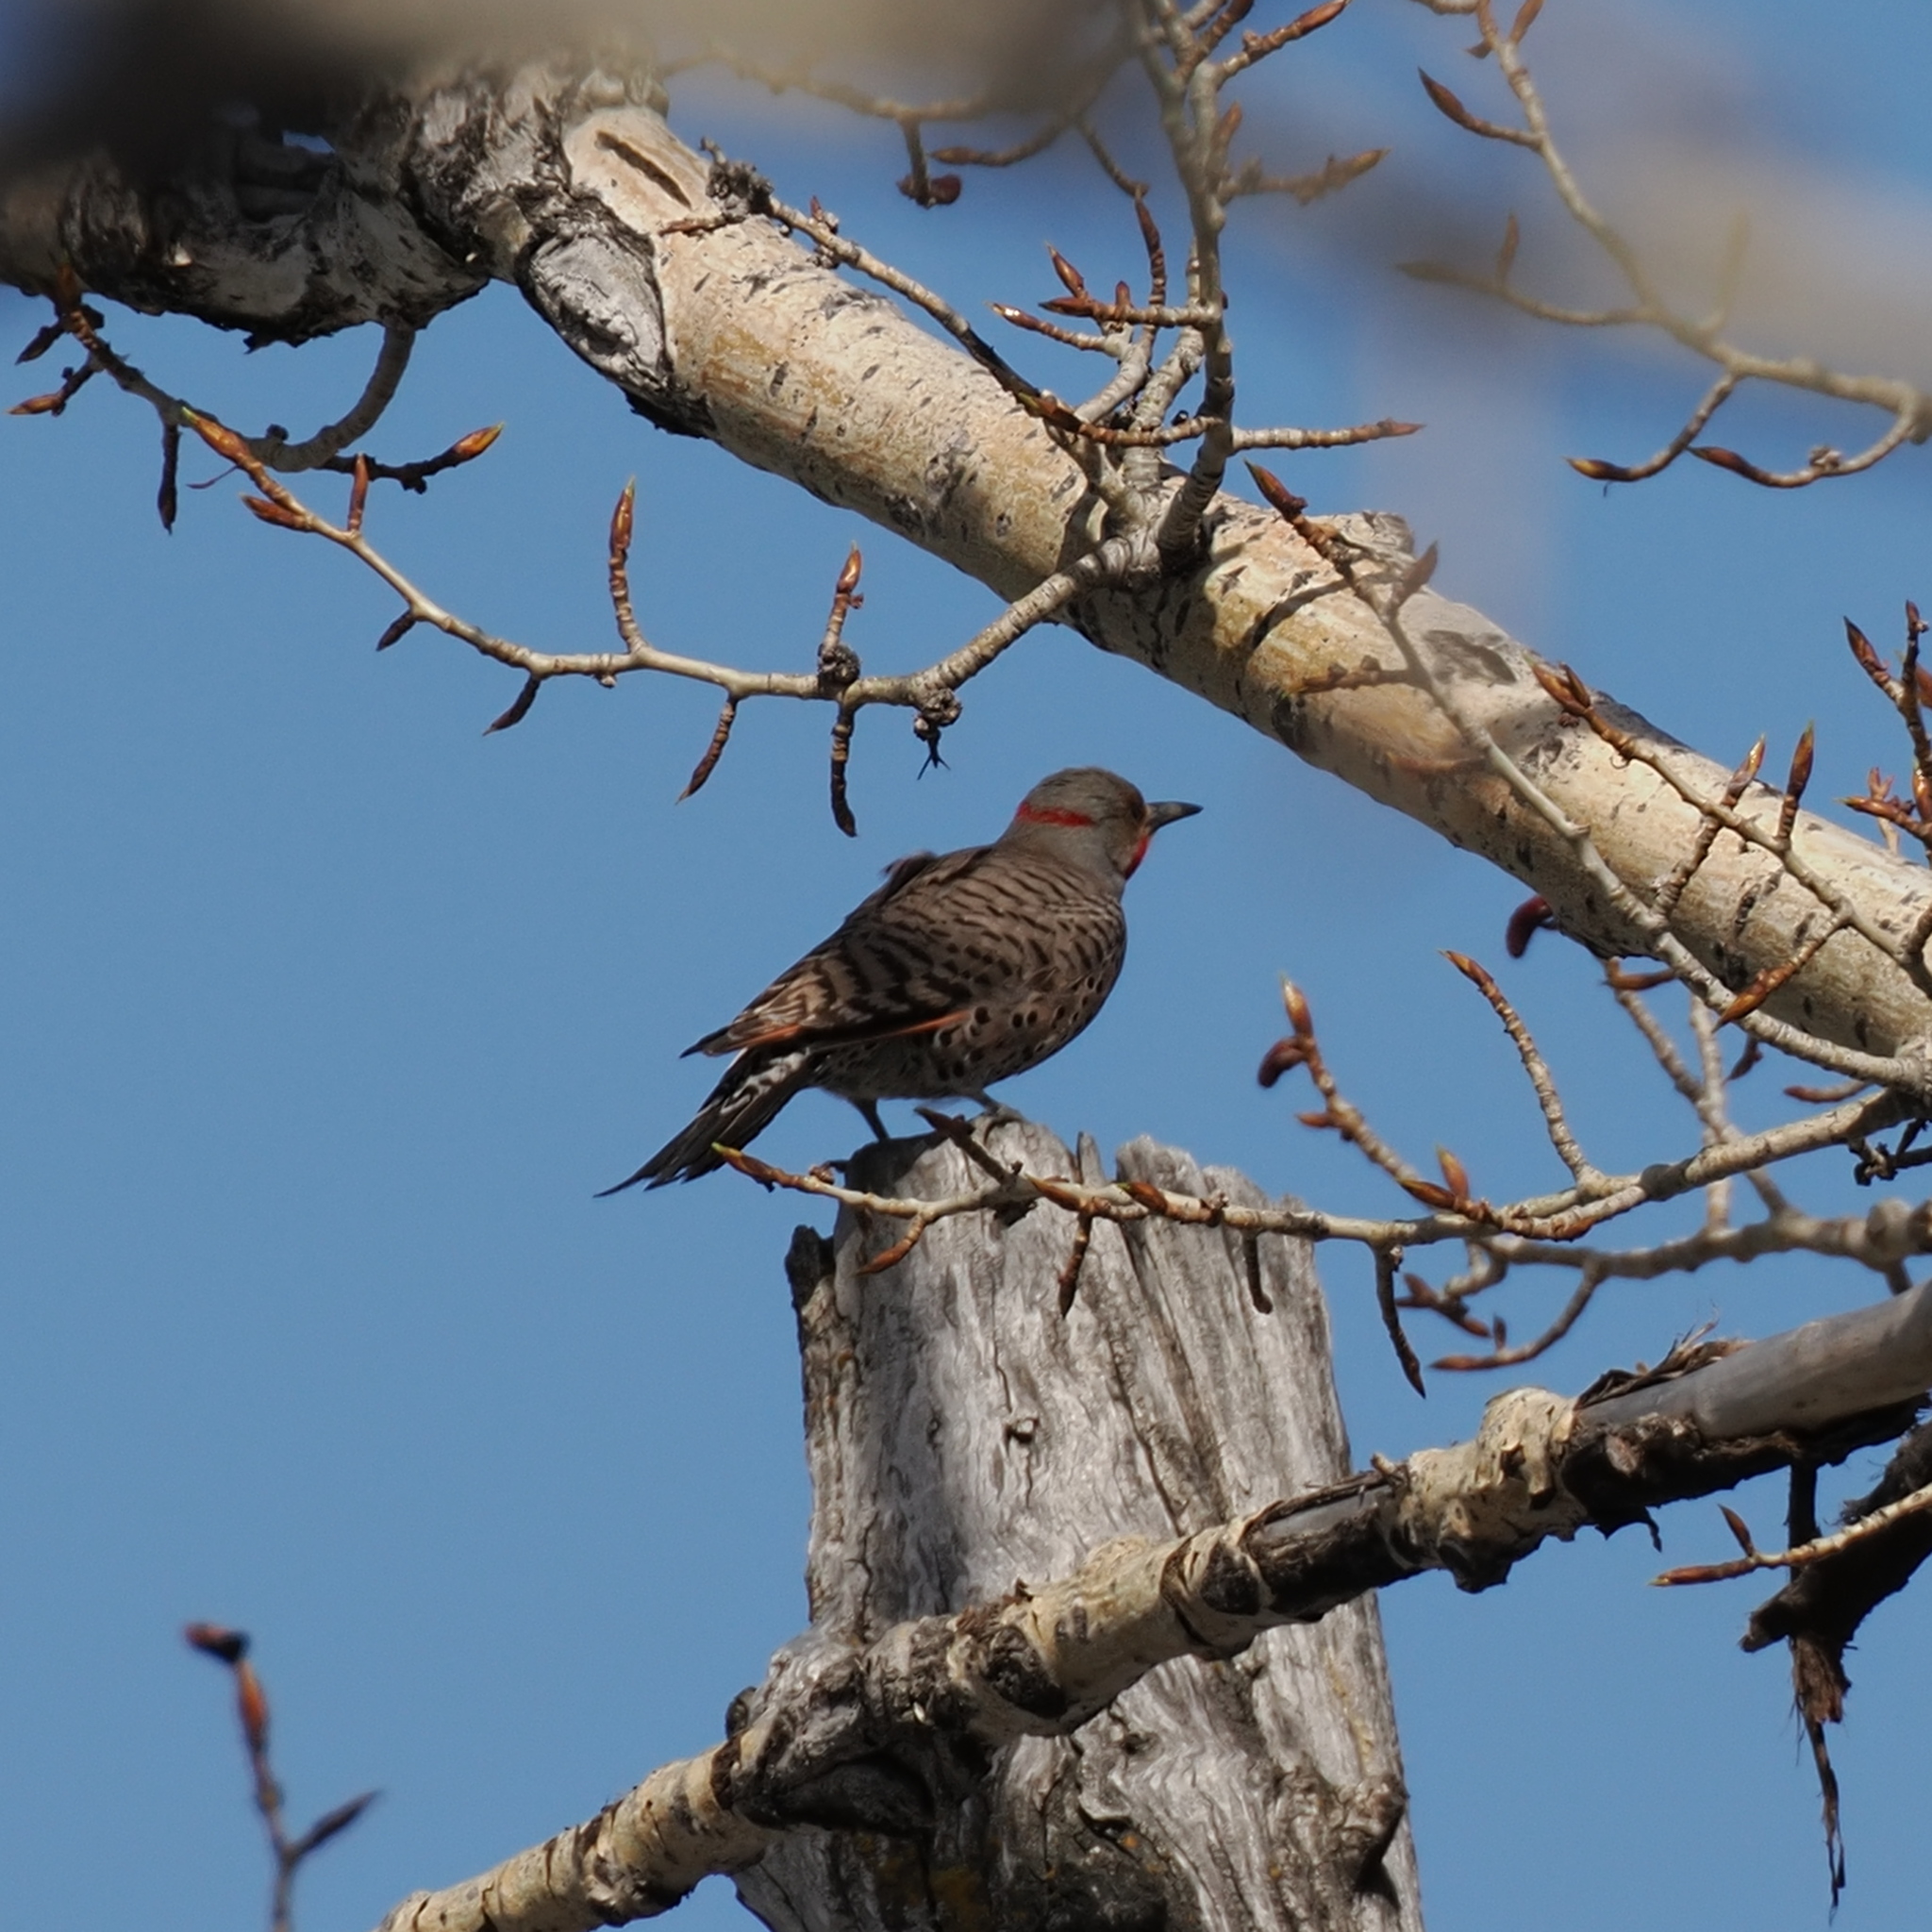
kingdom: Animalia
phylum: Chordata
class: Aves
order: Piciformes
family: Picidae
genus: Colaptes
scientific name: Colaptes
